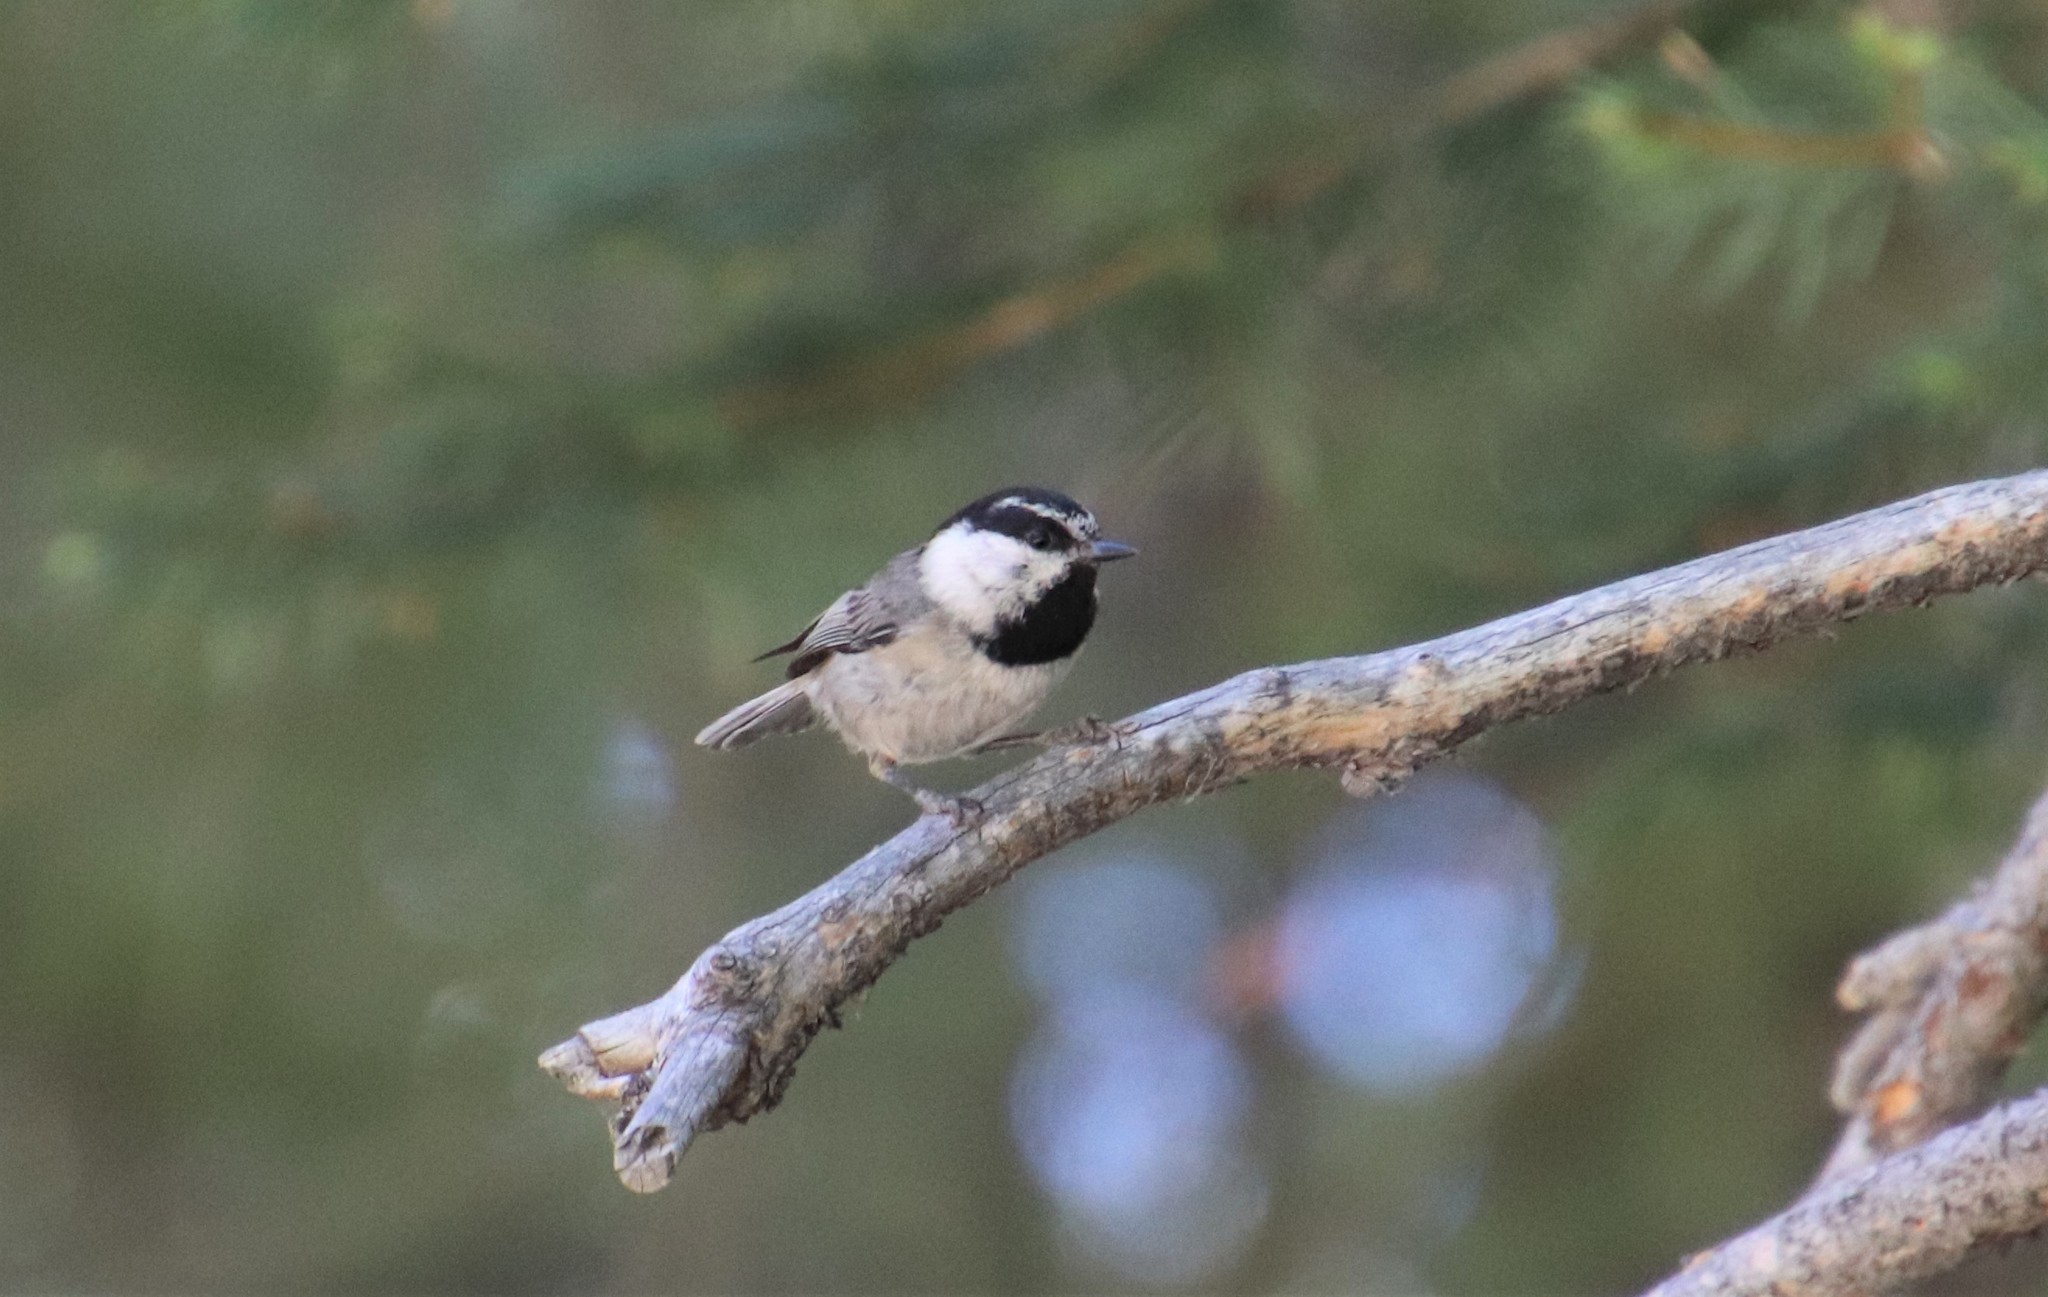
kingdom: Animalia
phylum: Chordata
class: Aves
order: Passeriformes
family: Paridae
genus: Poecile
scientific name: Poecile gambeli
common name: Mountain chickadee
